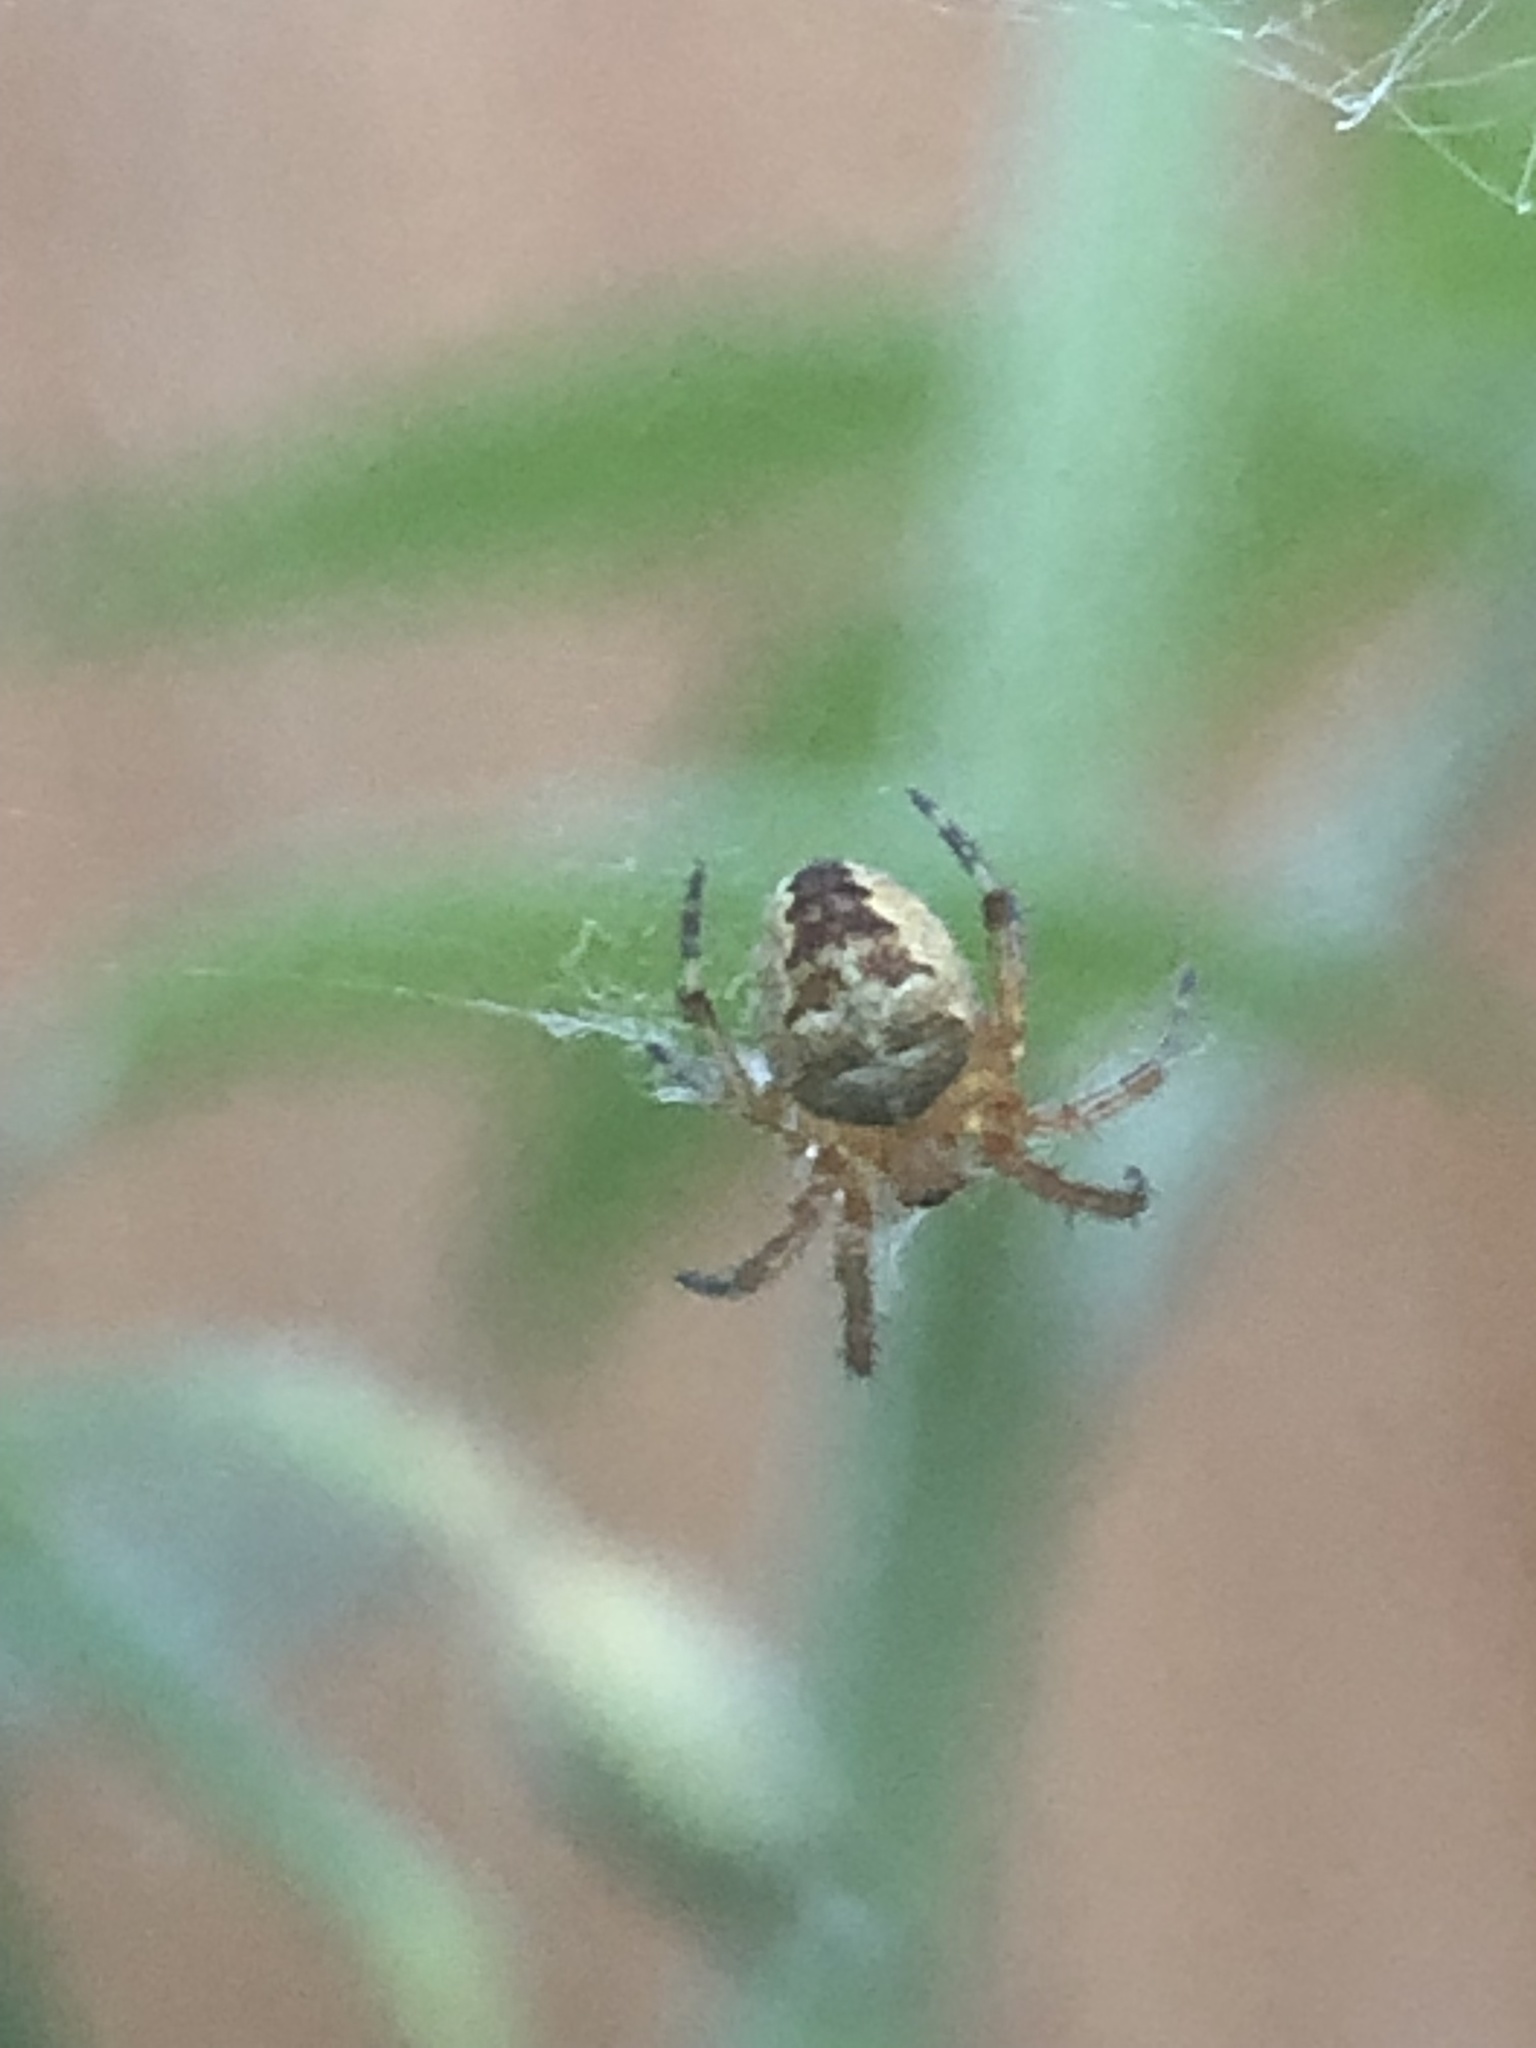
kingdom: Animalia
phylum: Arthropoda
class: Arachnida
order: Araneae
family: Araneidae
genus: Araneus
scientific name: Araneus diadematus
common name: Cross orbweaver
